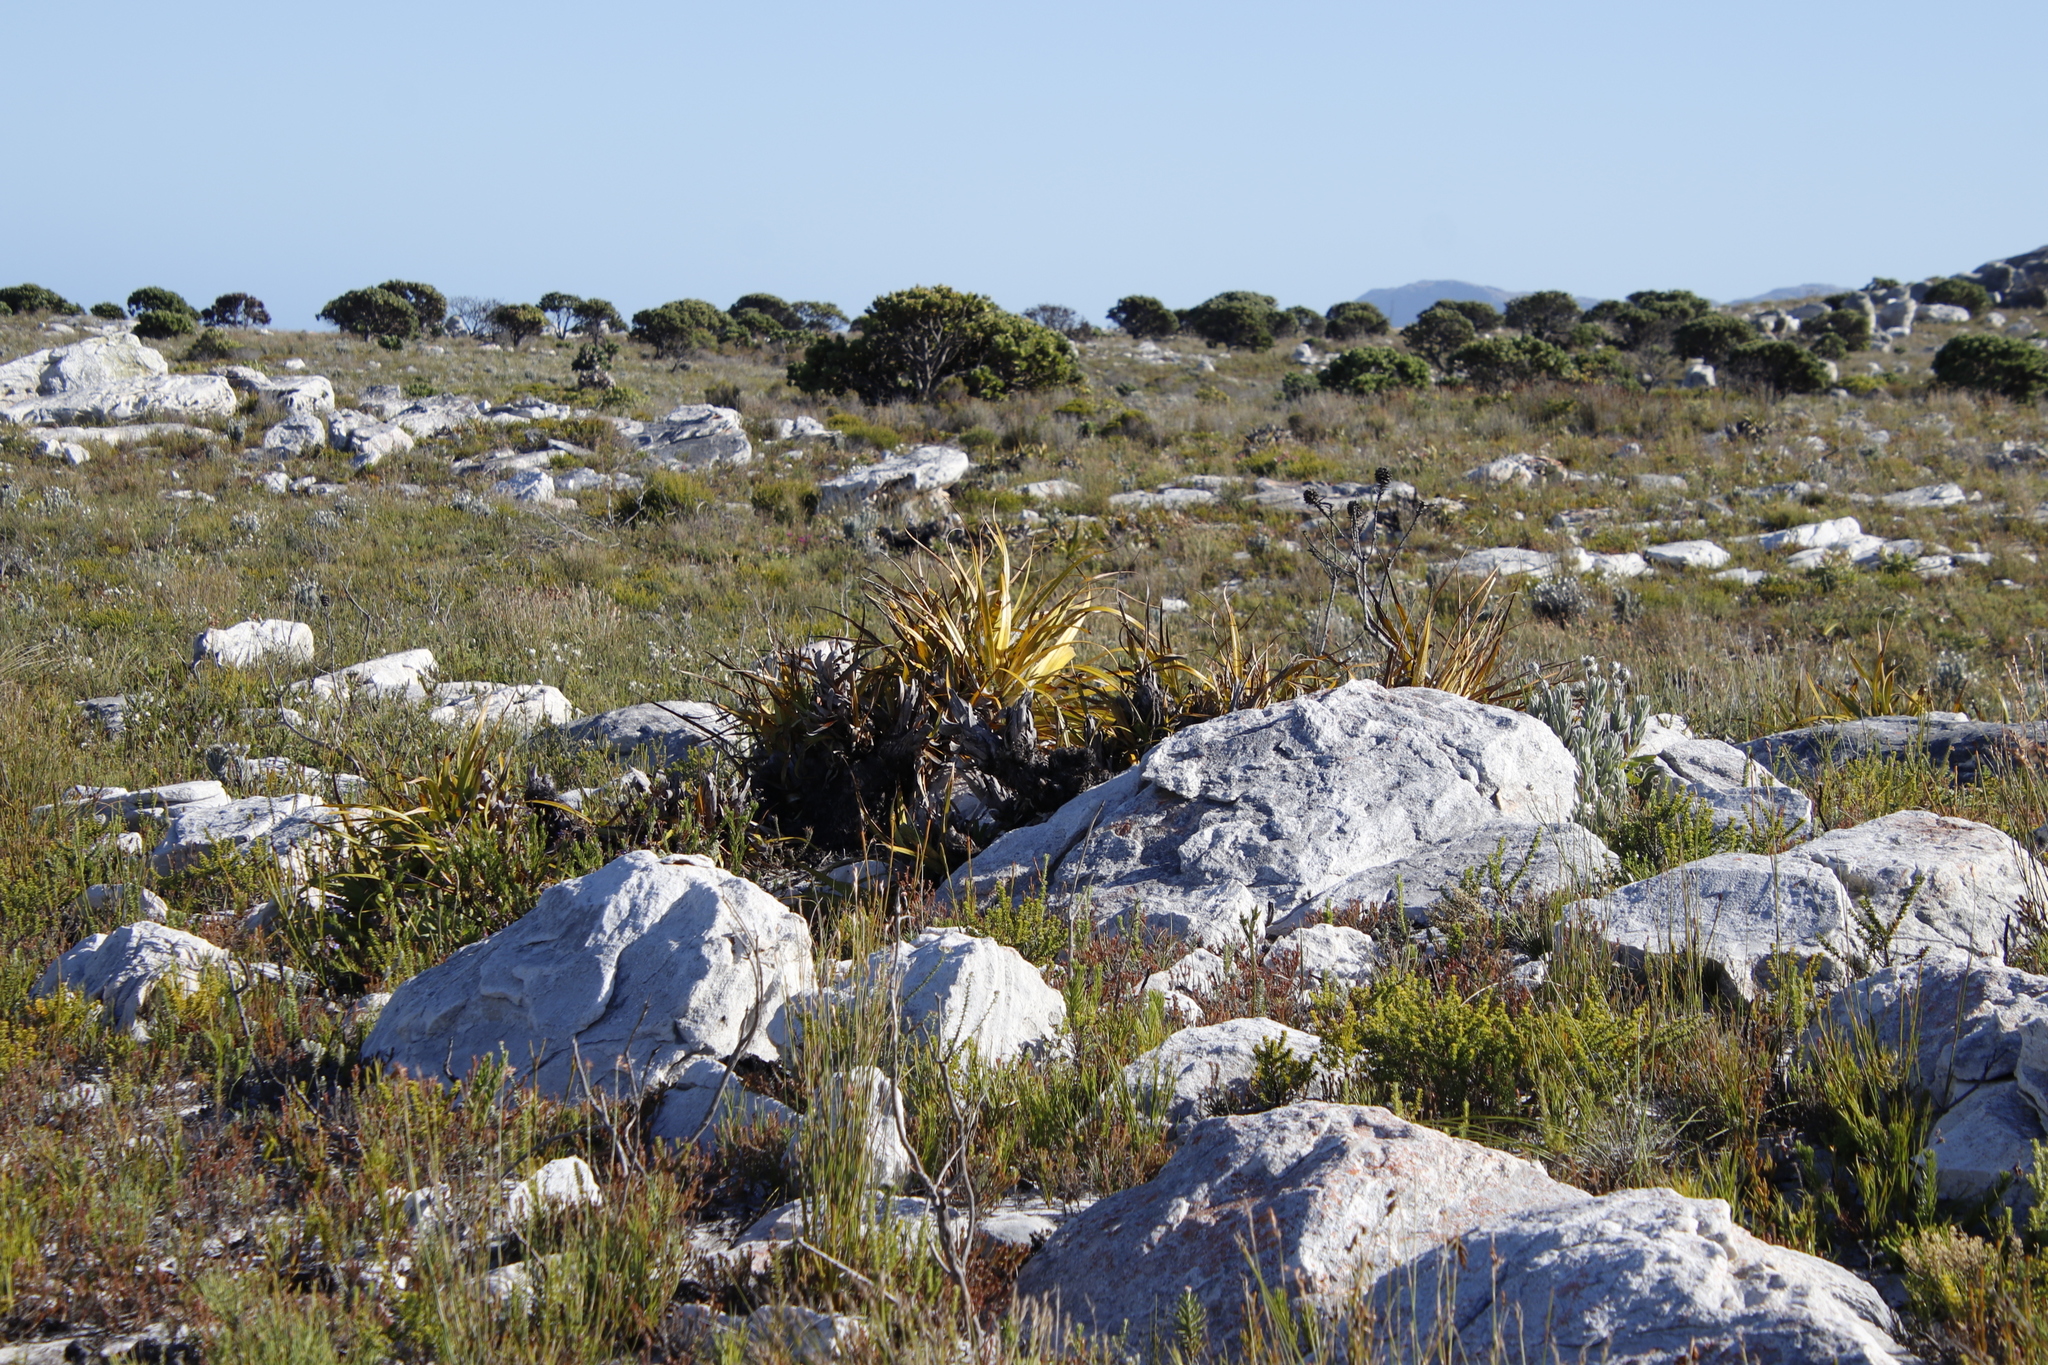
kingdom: Plantae
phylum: Tracheophyta
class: Liliopsida
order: Poales
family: Cyperaceae
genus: Tetraria
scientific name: Tetraria thermalis
